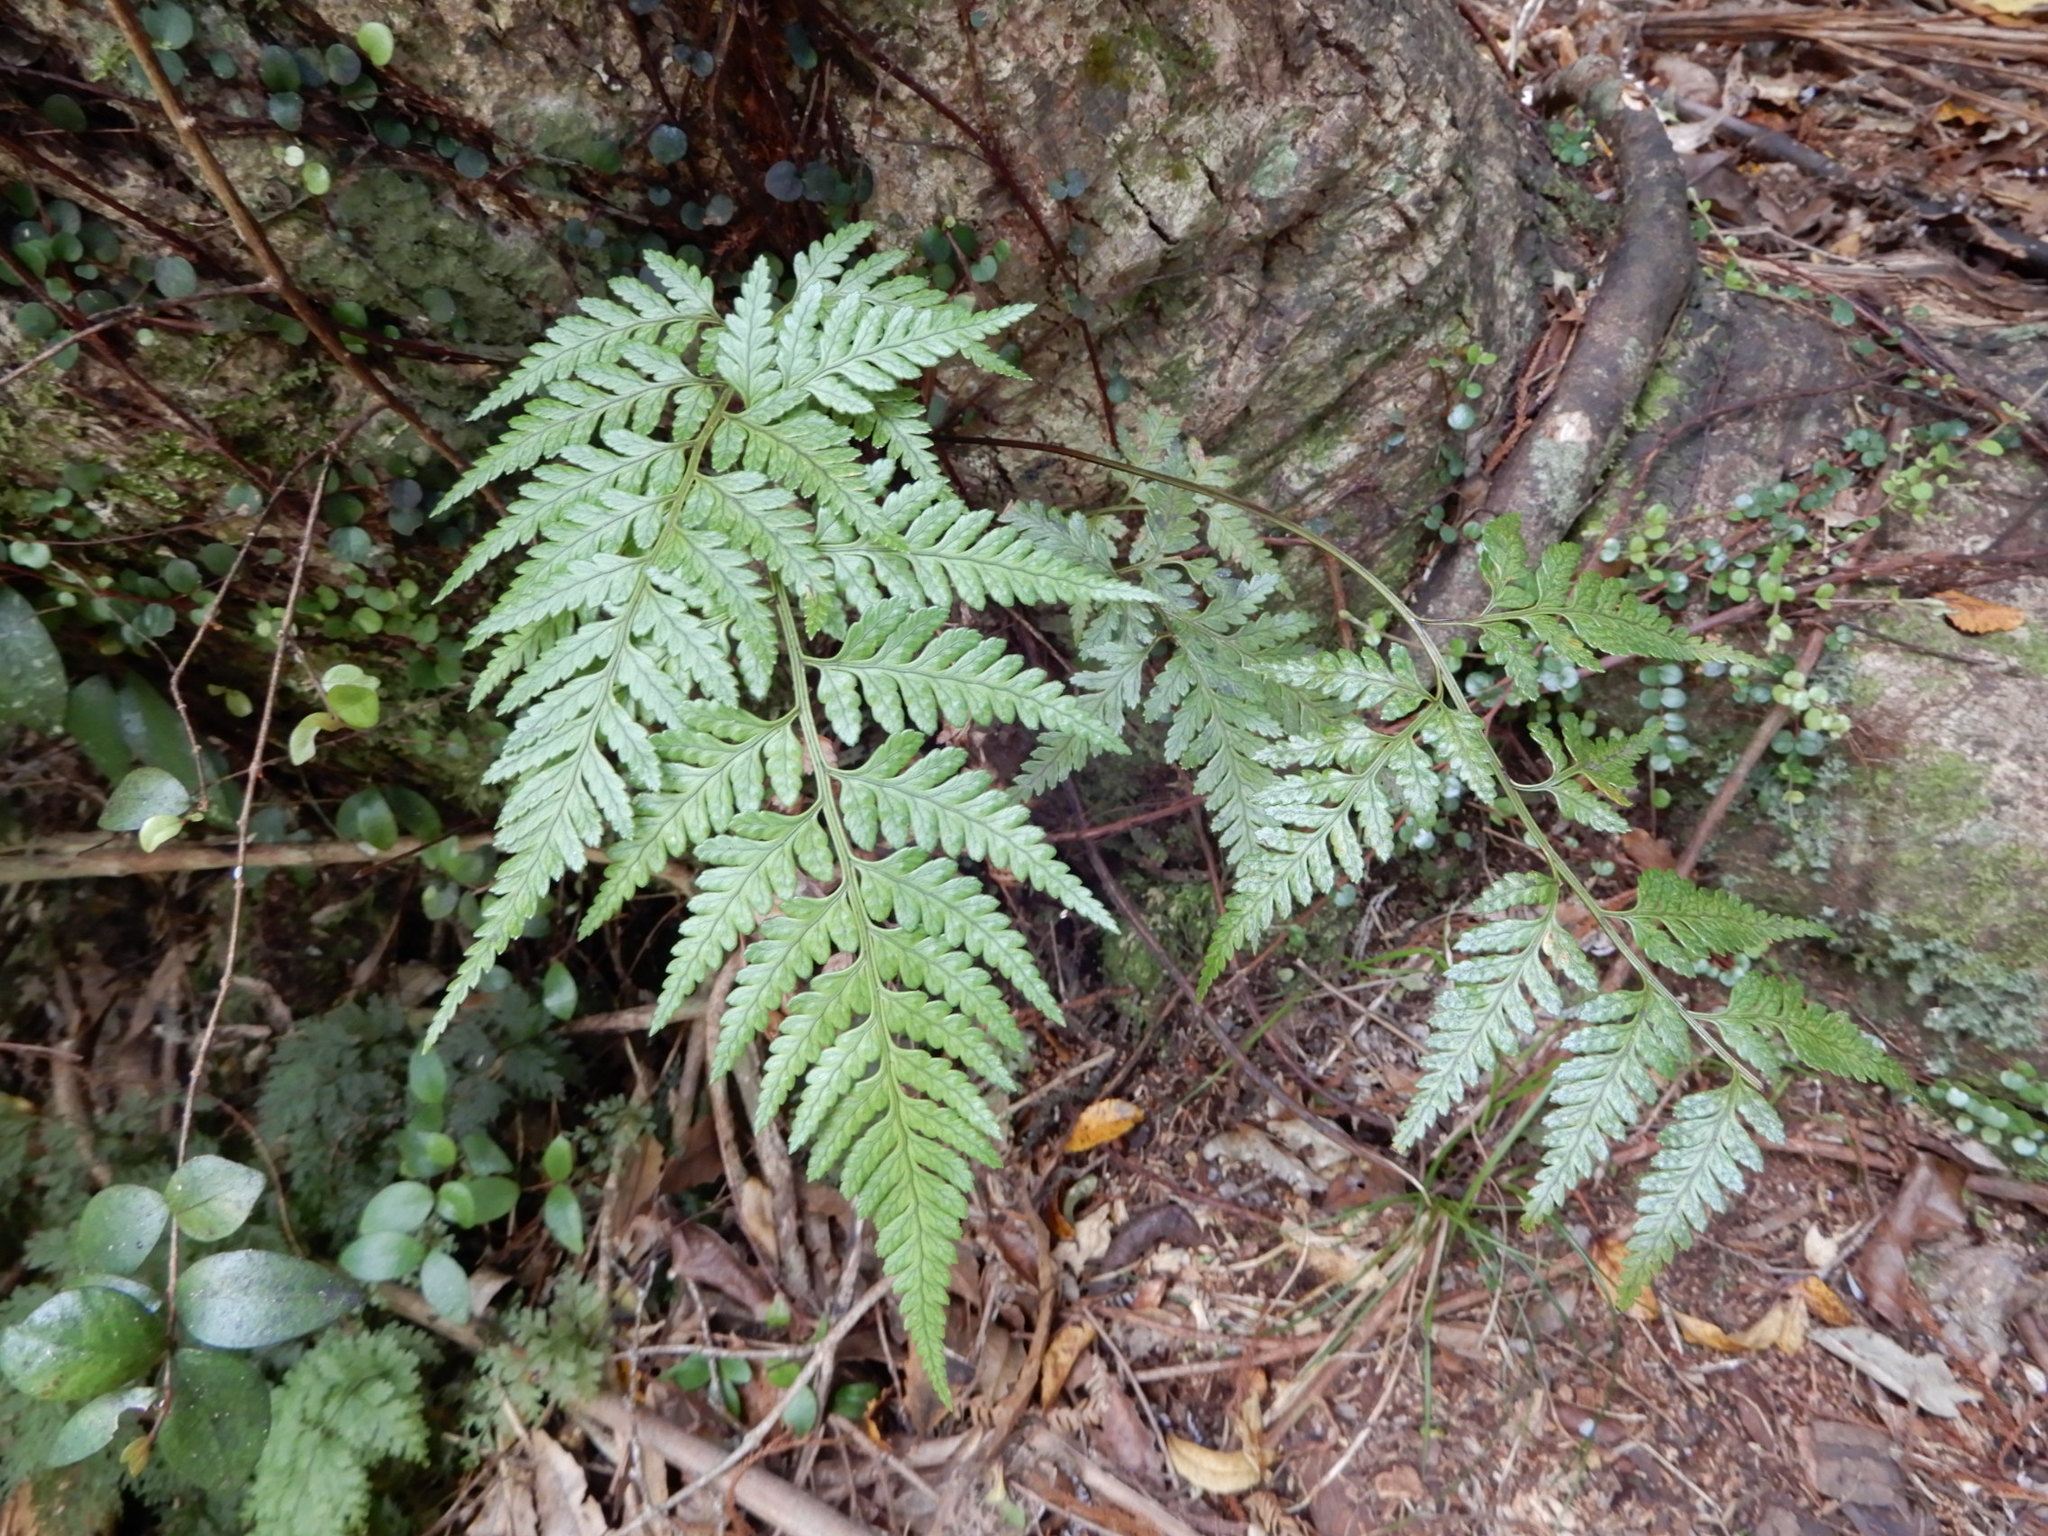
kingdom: Plantae
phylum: Tracheophyta
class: Polypodiopsida
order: Polypodiales
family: Dryopteridaceae
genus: Rumohra
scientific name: Rumohra adiantiformis
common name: Leather fern
